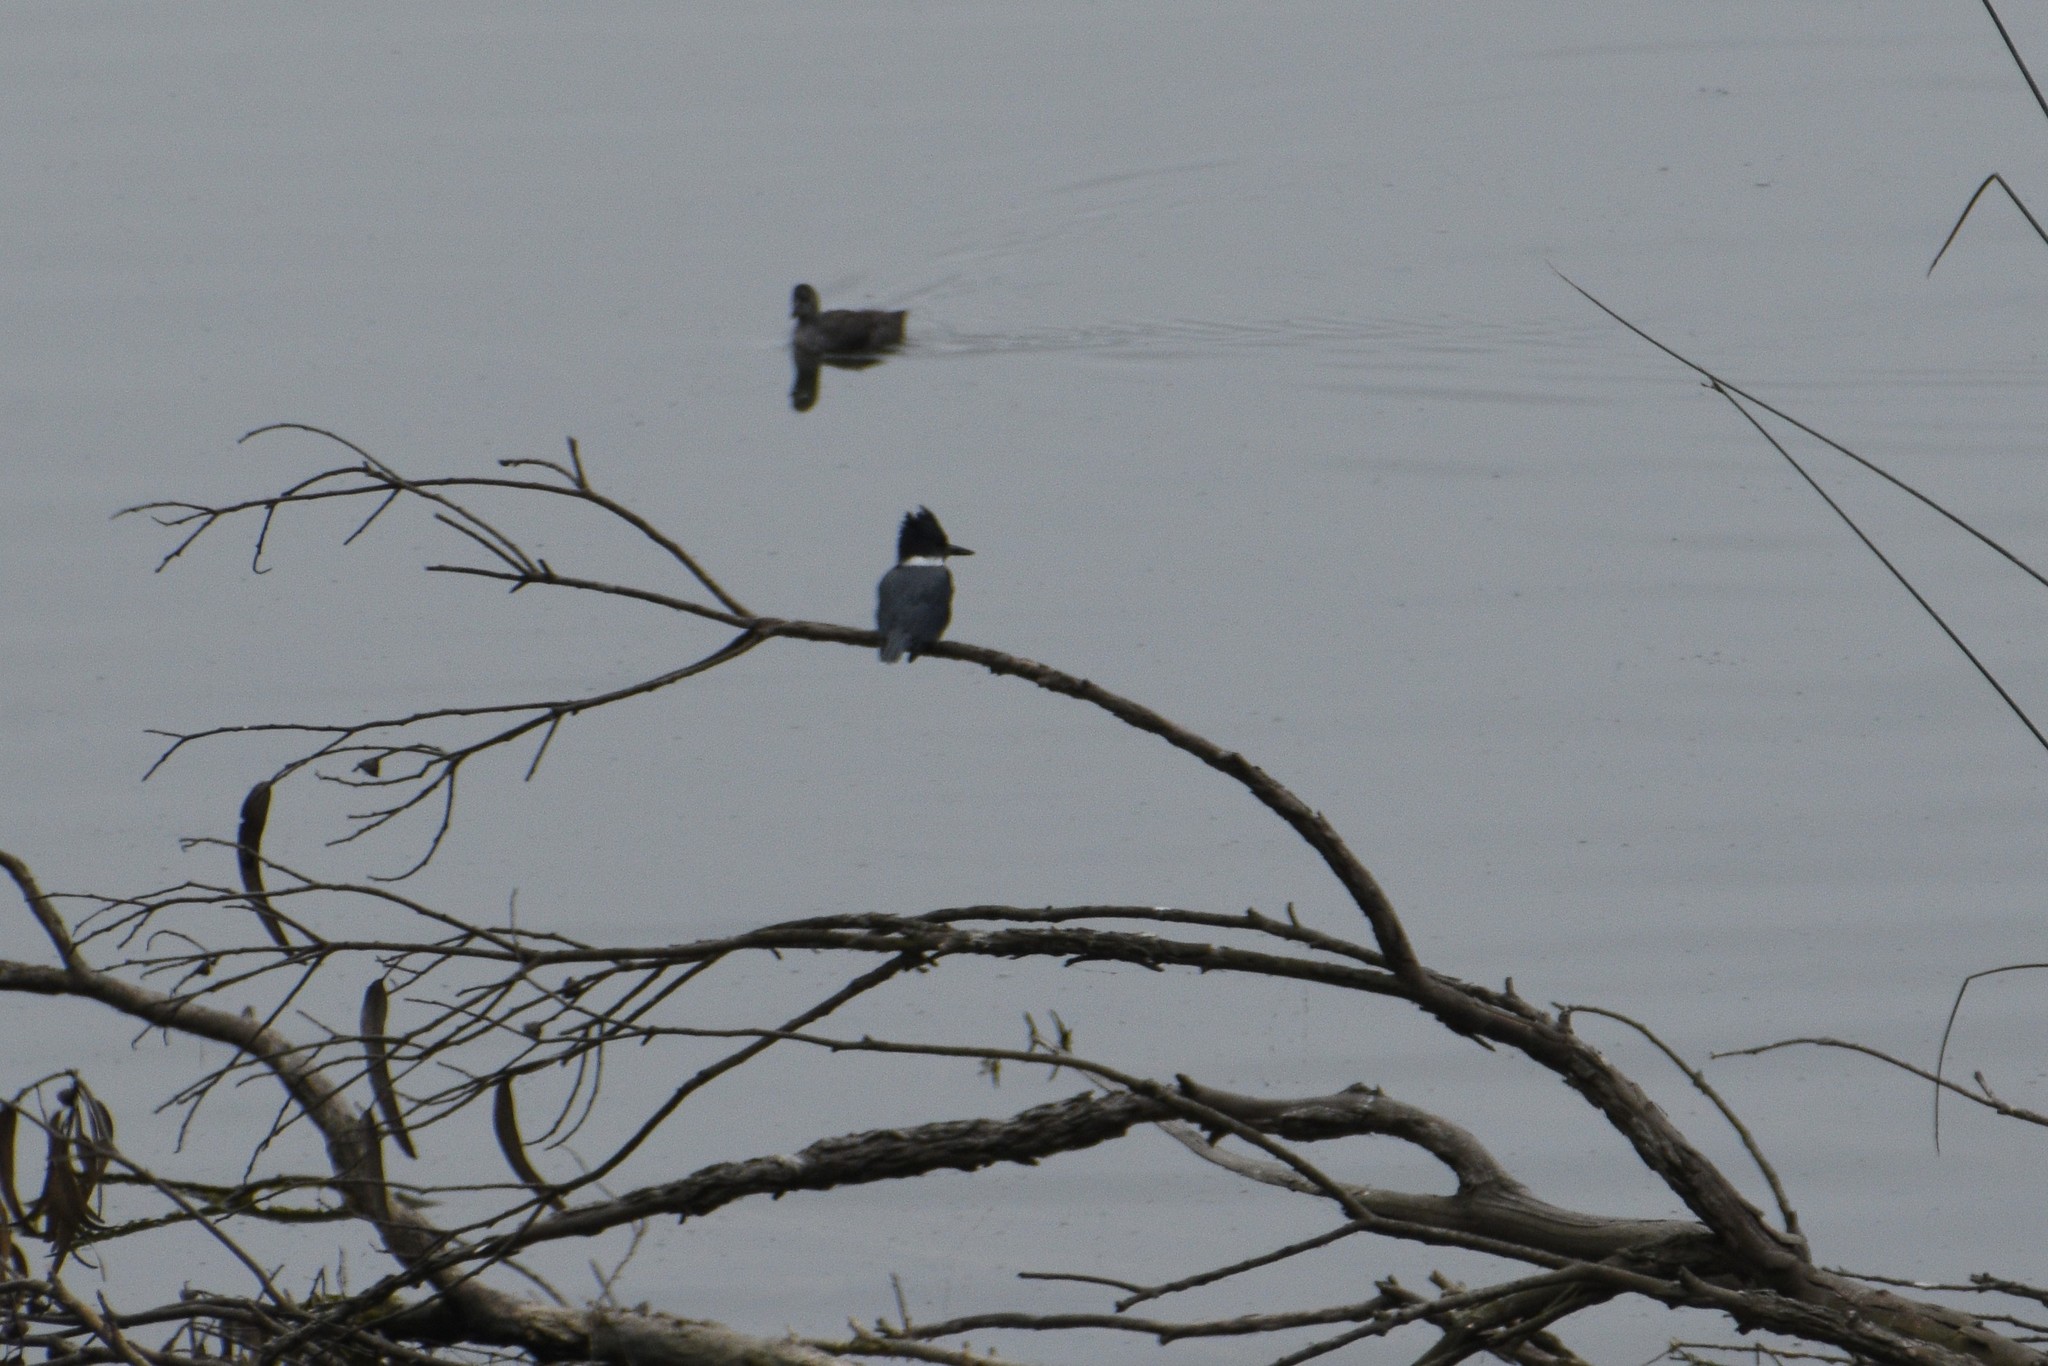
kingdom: Animalia
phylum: Chordata
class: Aves
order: Coraciiformes
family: Alcedinidae
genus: Megaceryle
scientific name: Megaceryle alcyon
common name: Belted kingfisher
